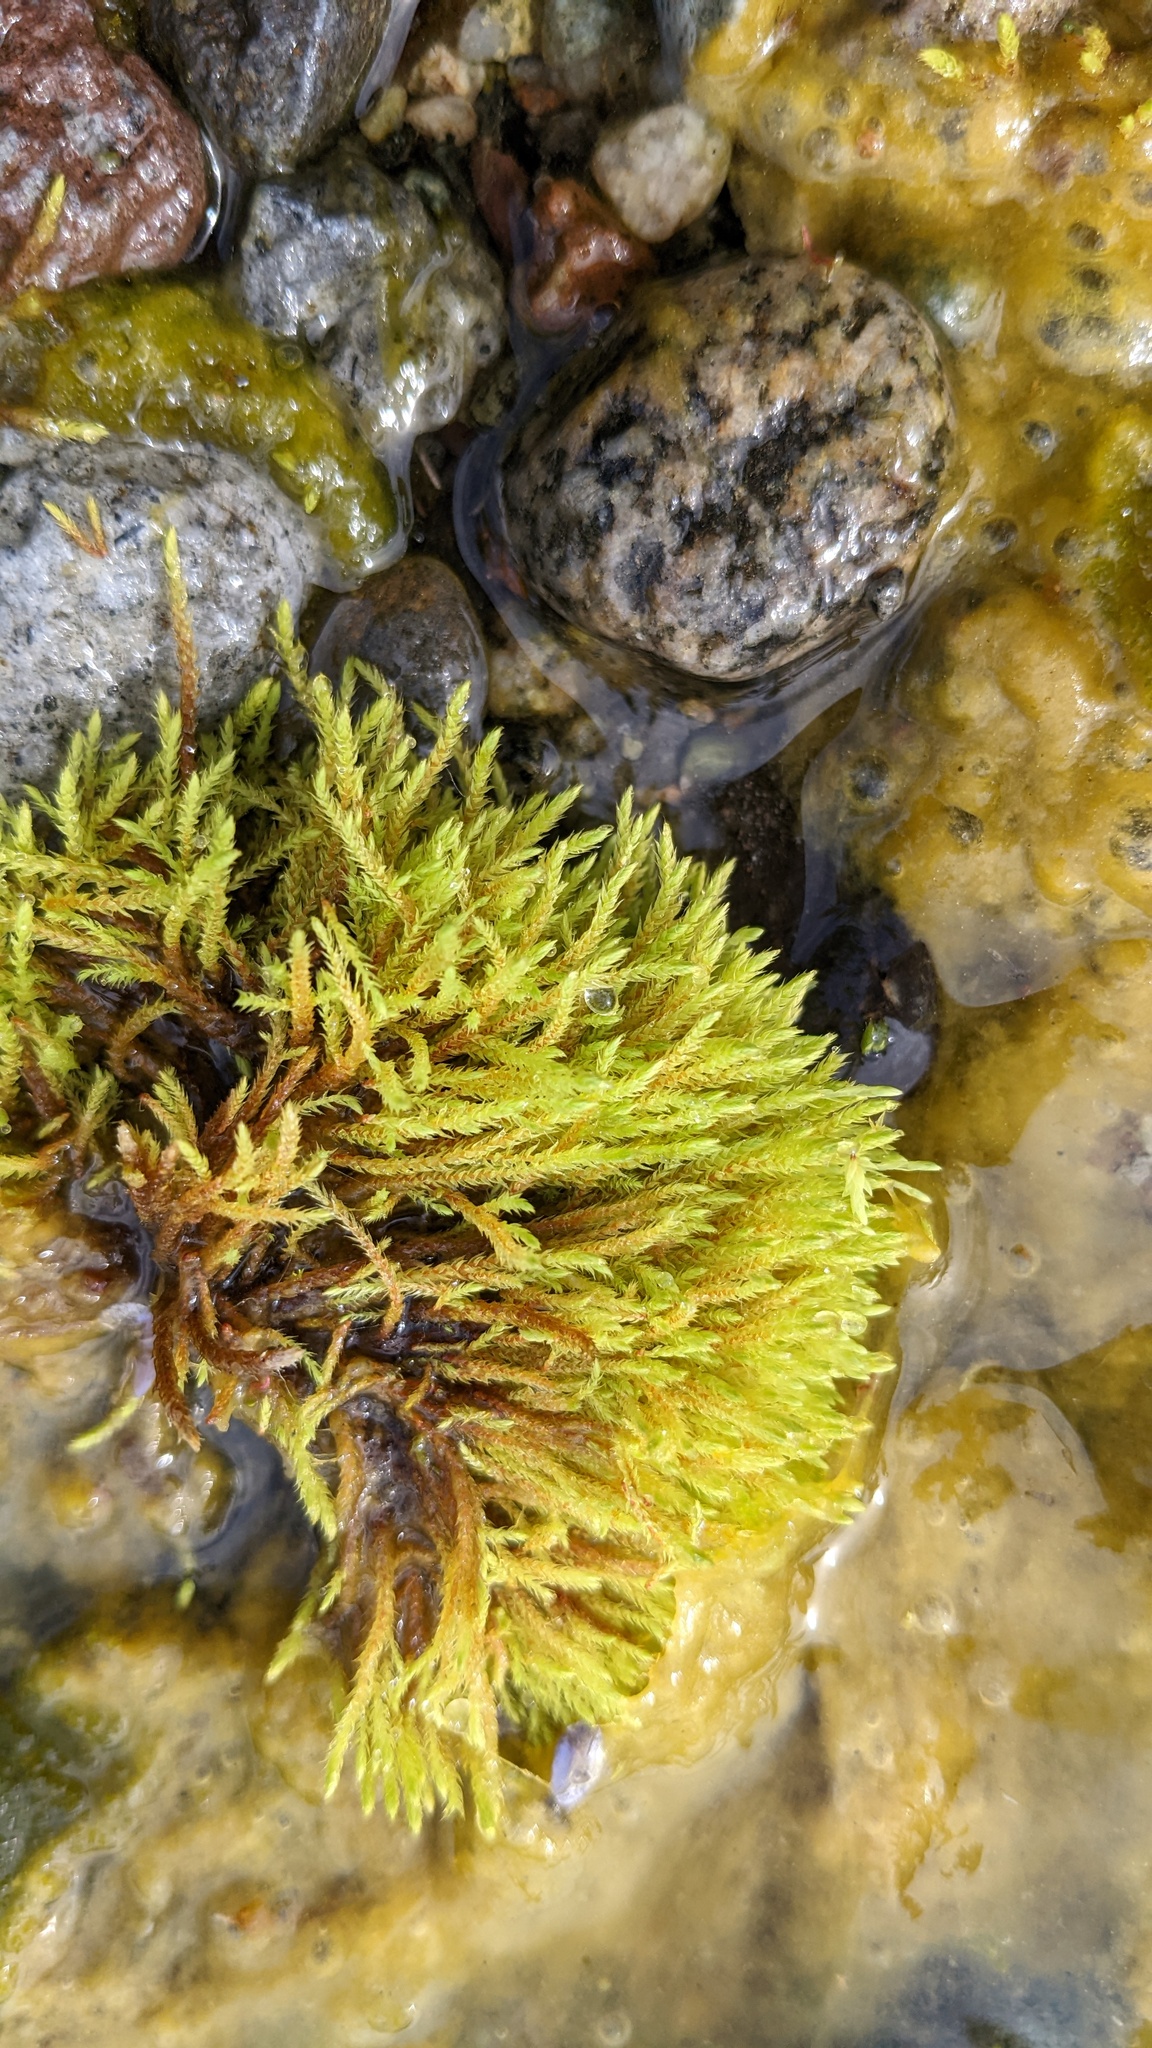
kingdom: Plantae
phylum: Bryophyta
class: Bryopsida
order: Bartramiales
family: Bartramiaceae
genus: Philonotis
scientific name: Philonotis fontana
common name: Fountain apple-moss
